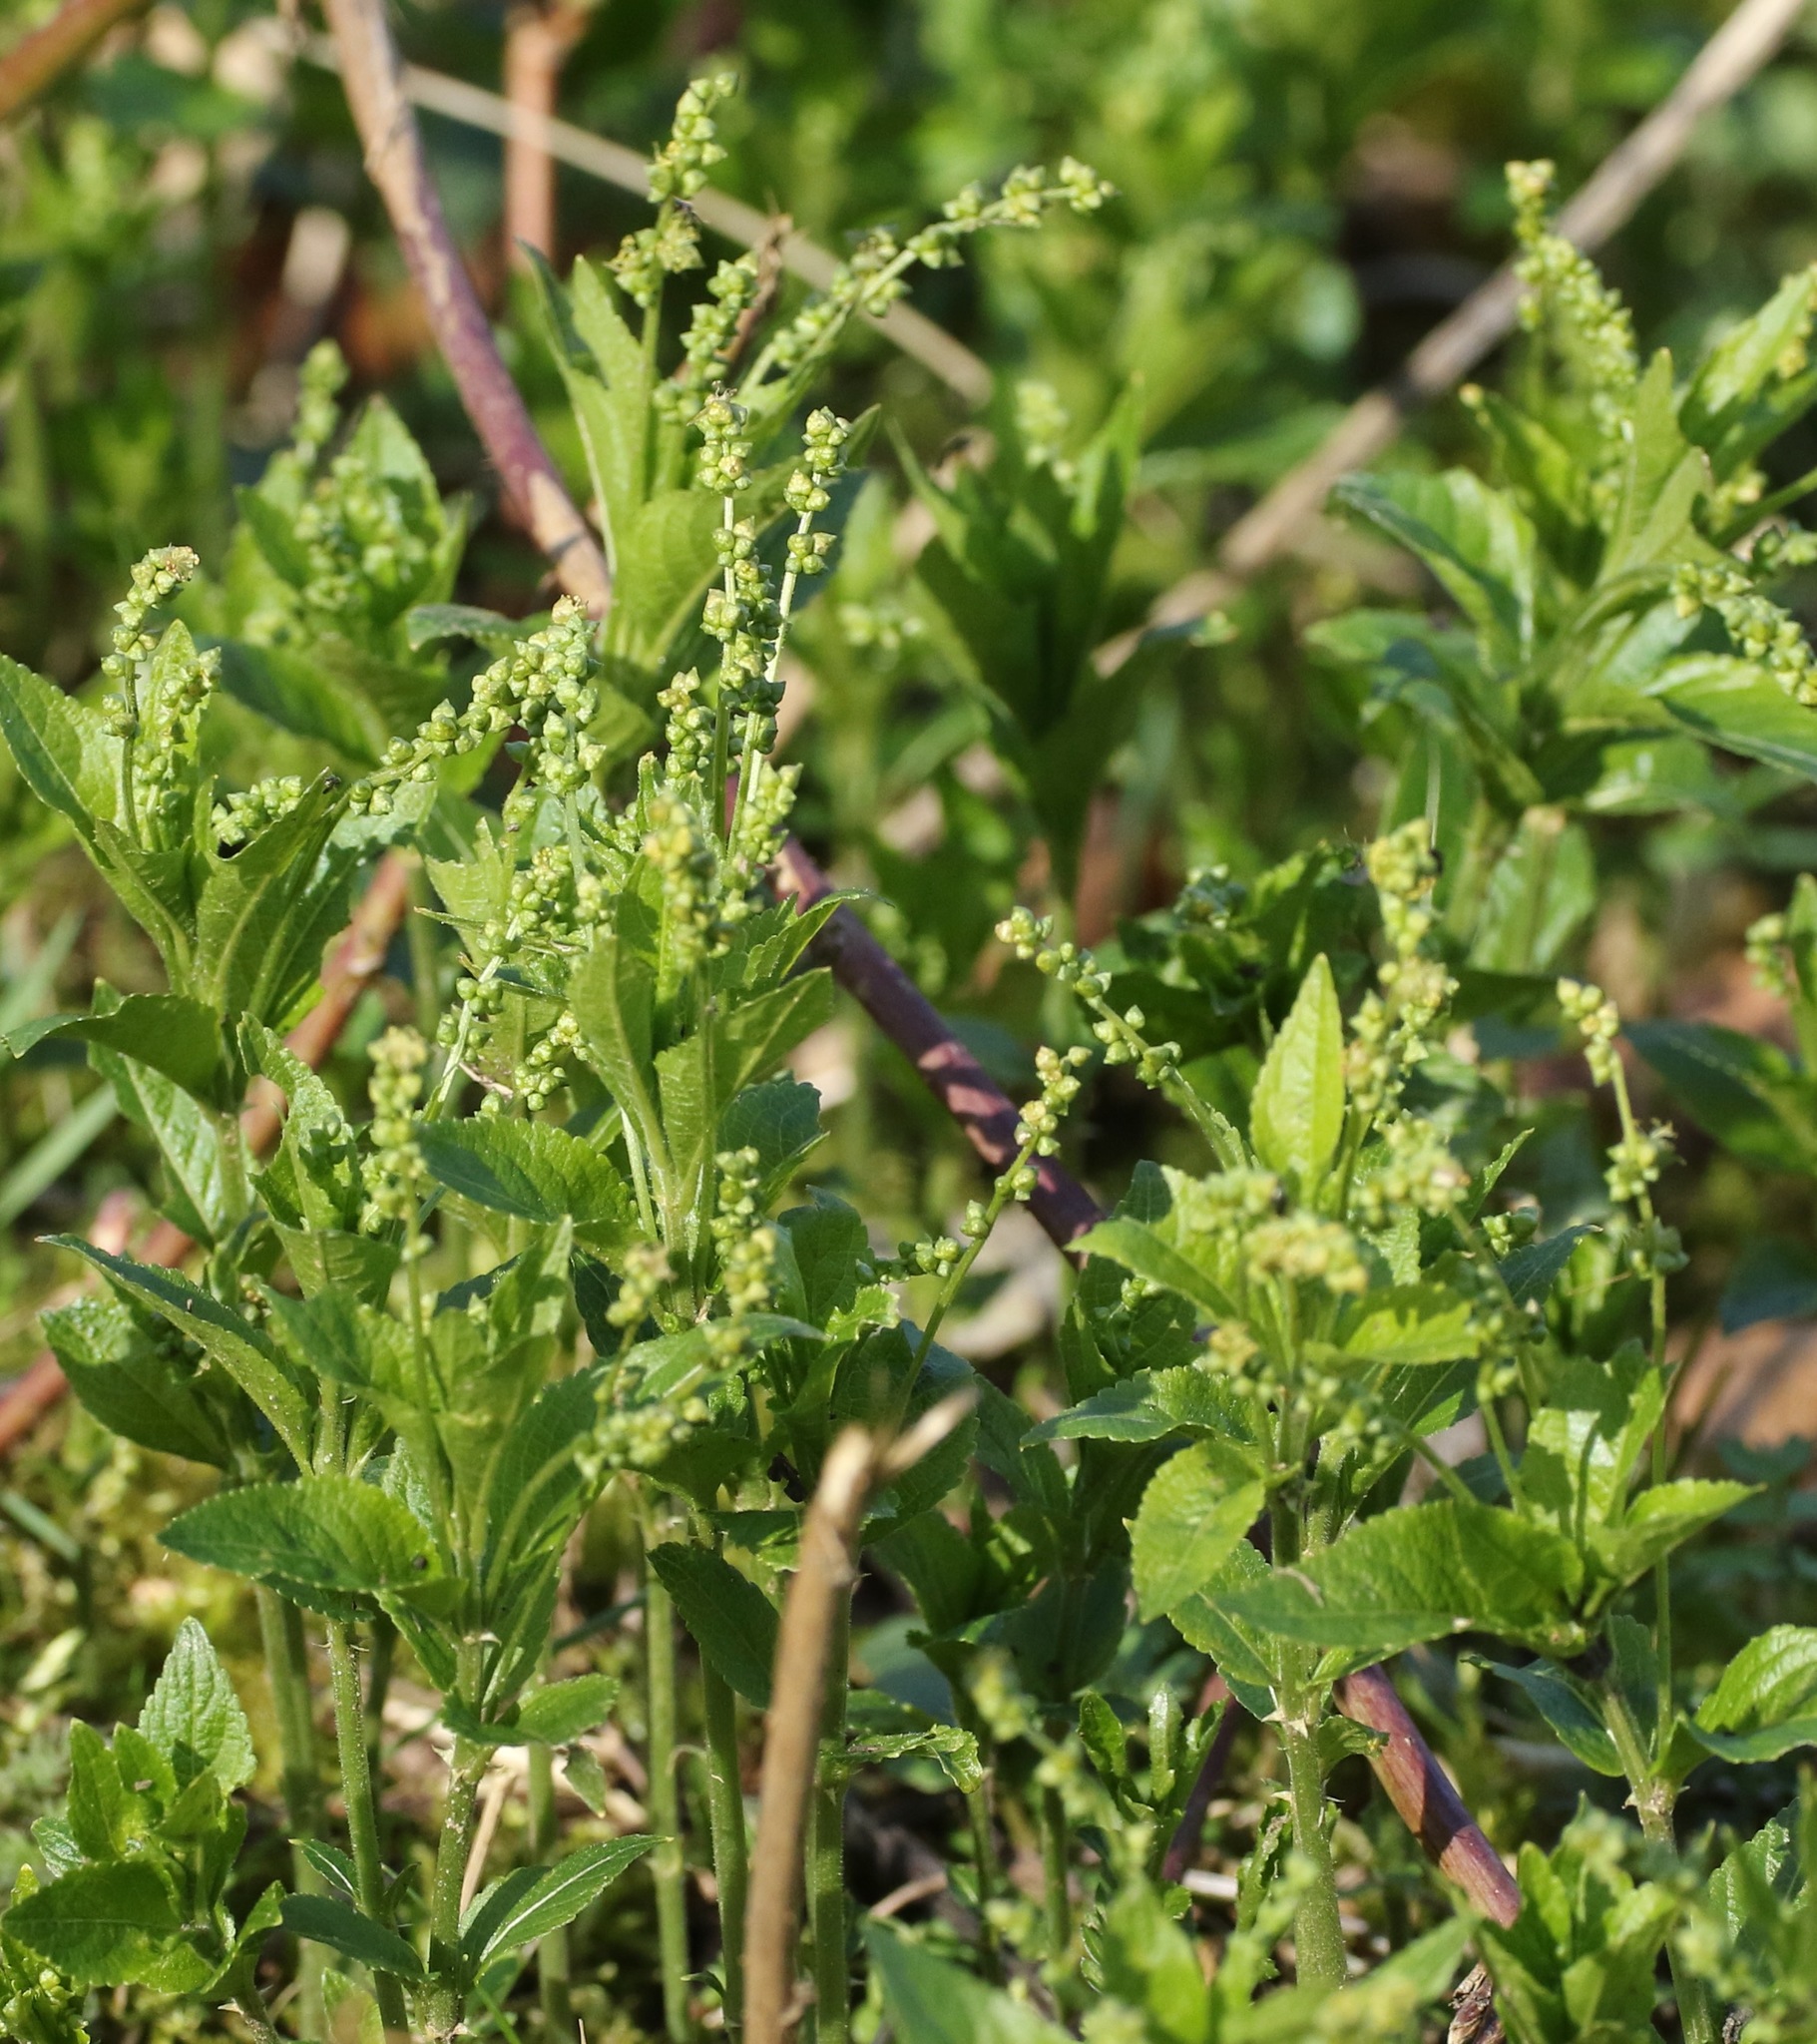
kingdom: Plantae
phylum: Tracheophyta
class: Magnoliopsida
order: Malpighiales
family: Euphorbiaceae
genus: Mercurialis
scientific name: Mercurialis perennis
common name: Dog mercury
